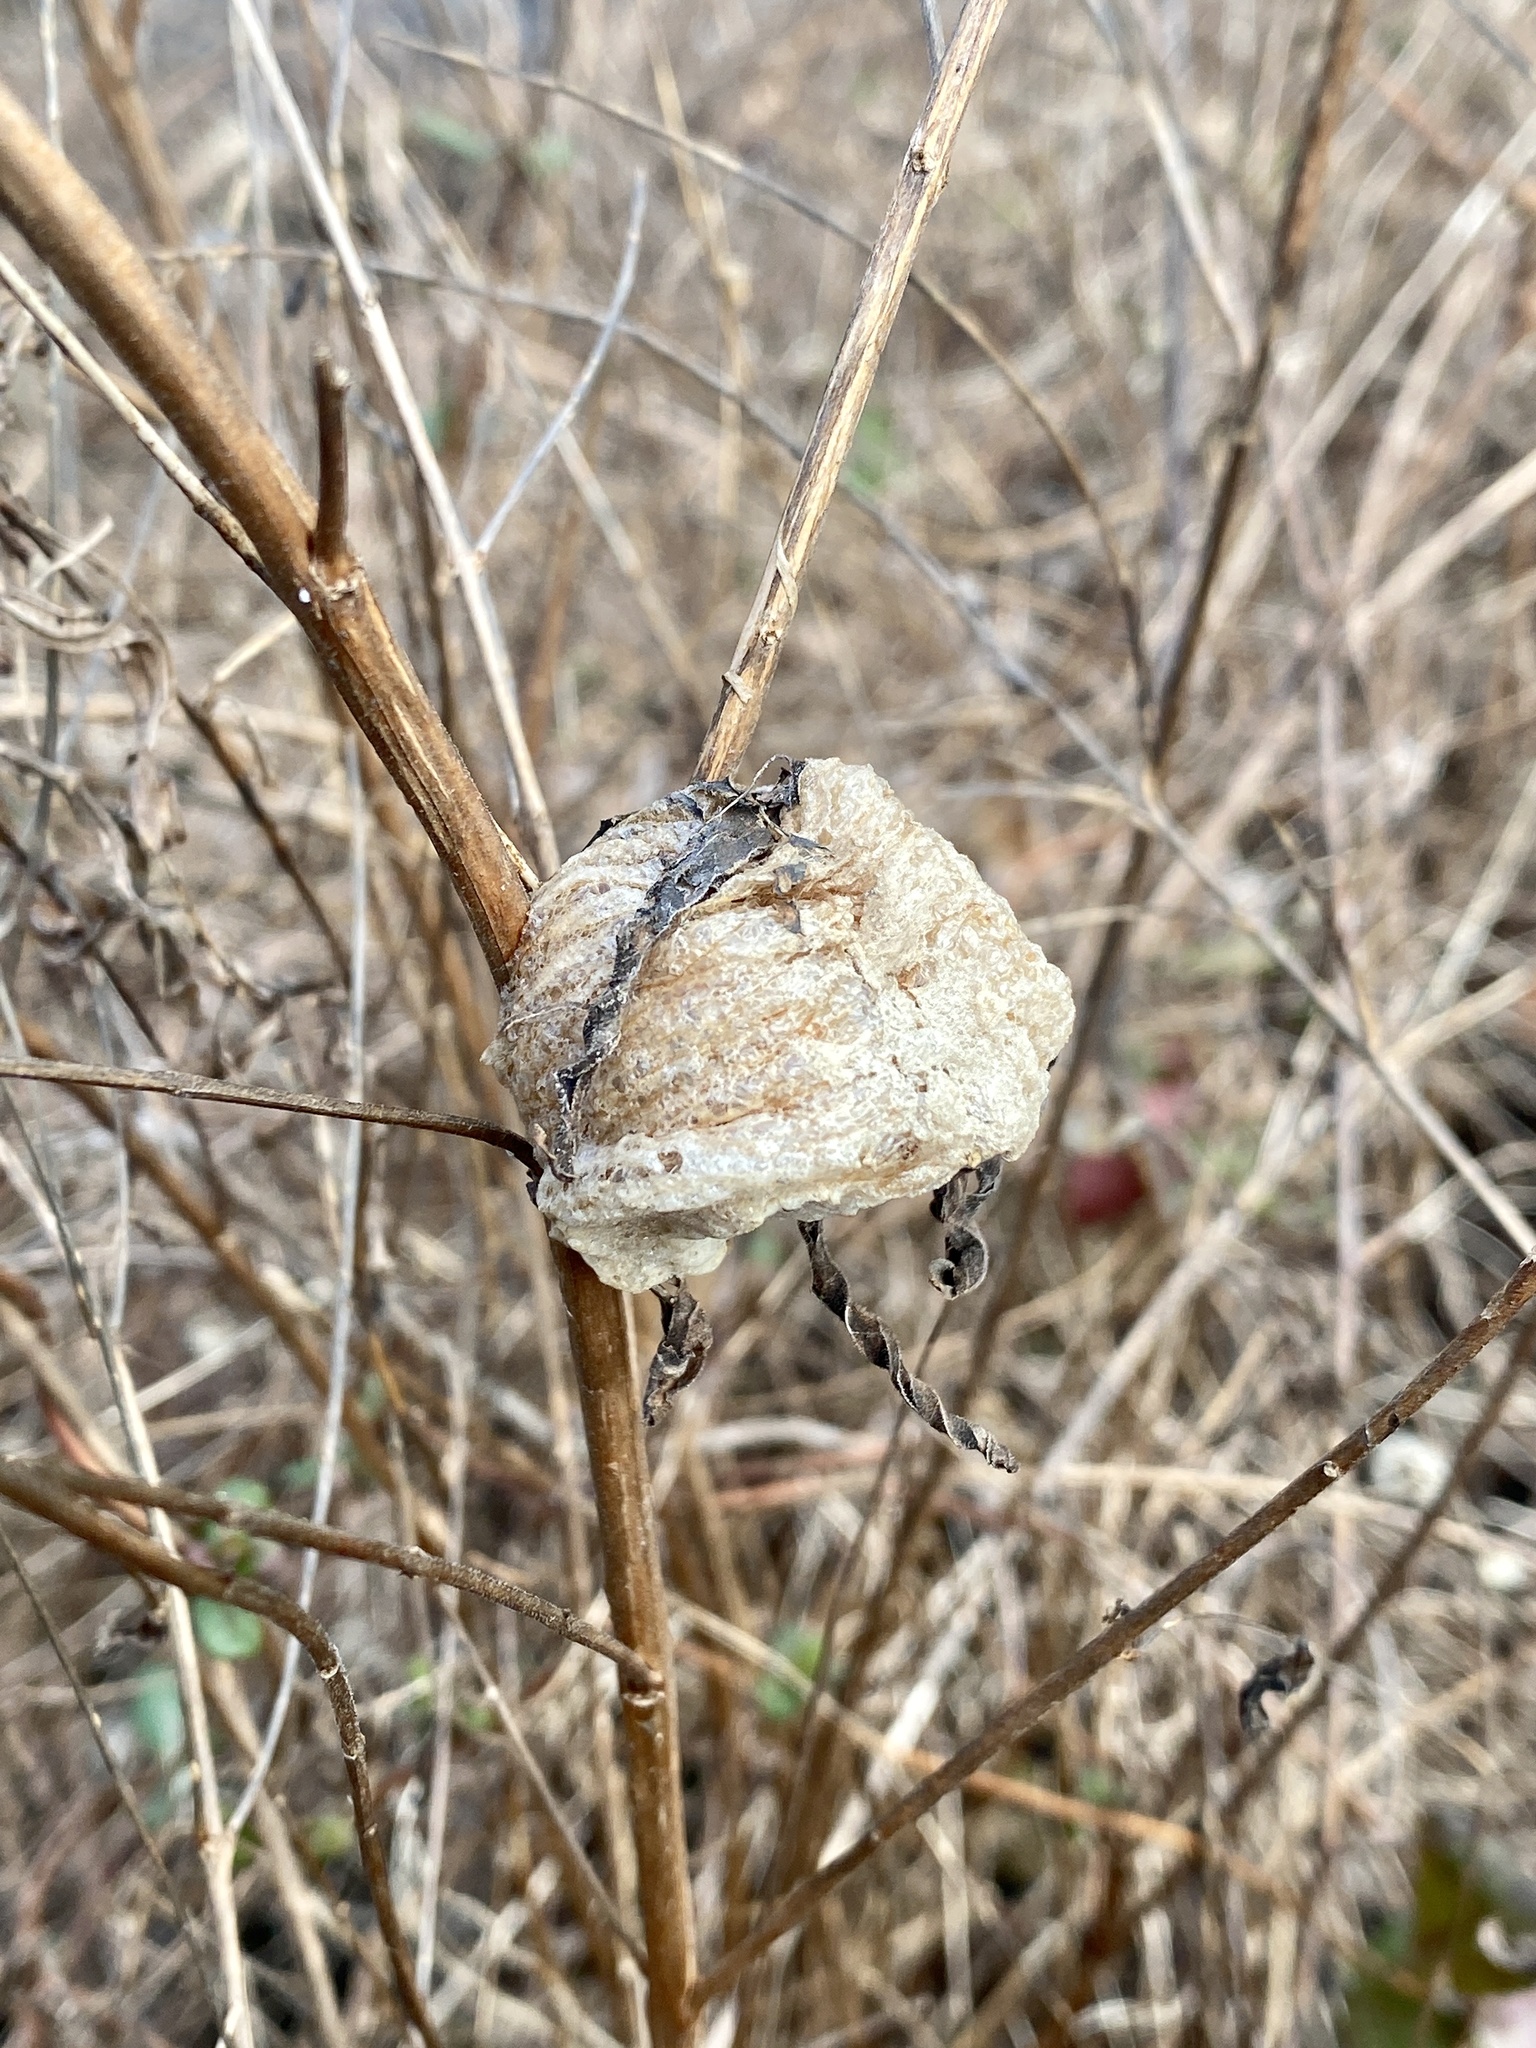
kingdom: Animalia
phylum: Arthropoda
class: Insecta
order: Mantodea
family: Mantidae
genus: Tenodera
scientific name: Tenodera sinensis
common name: Chinese mantis
